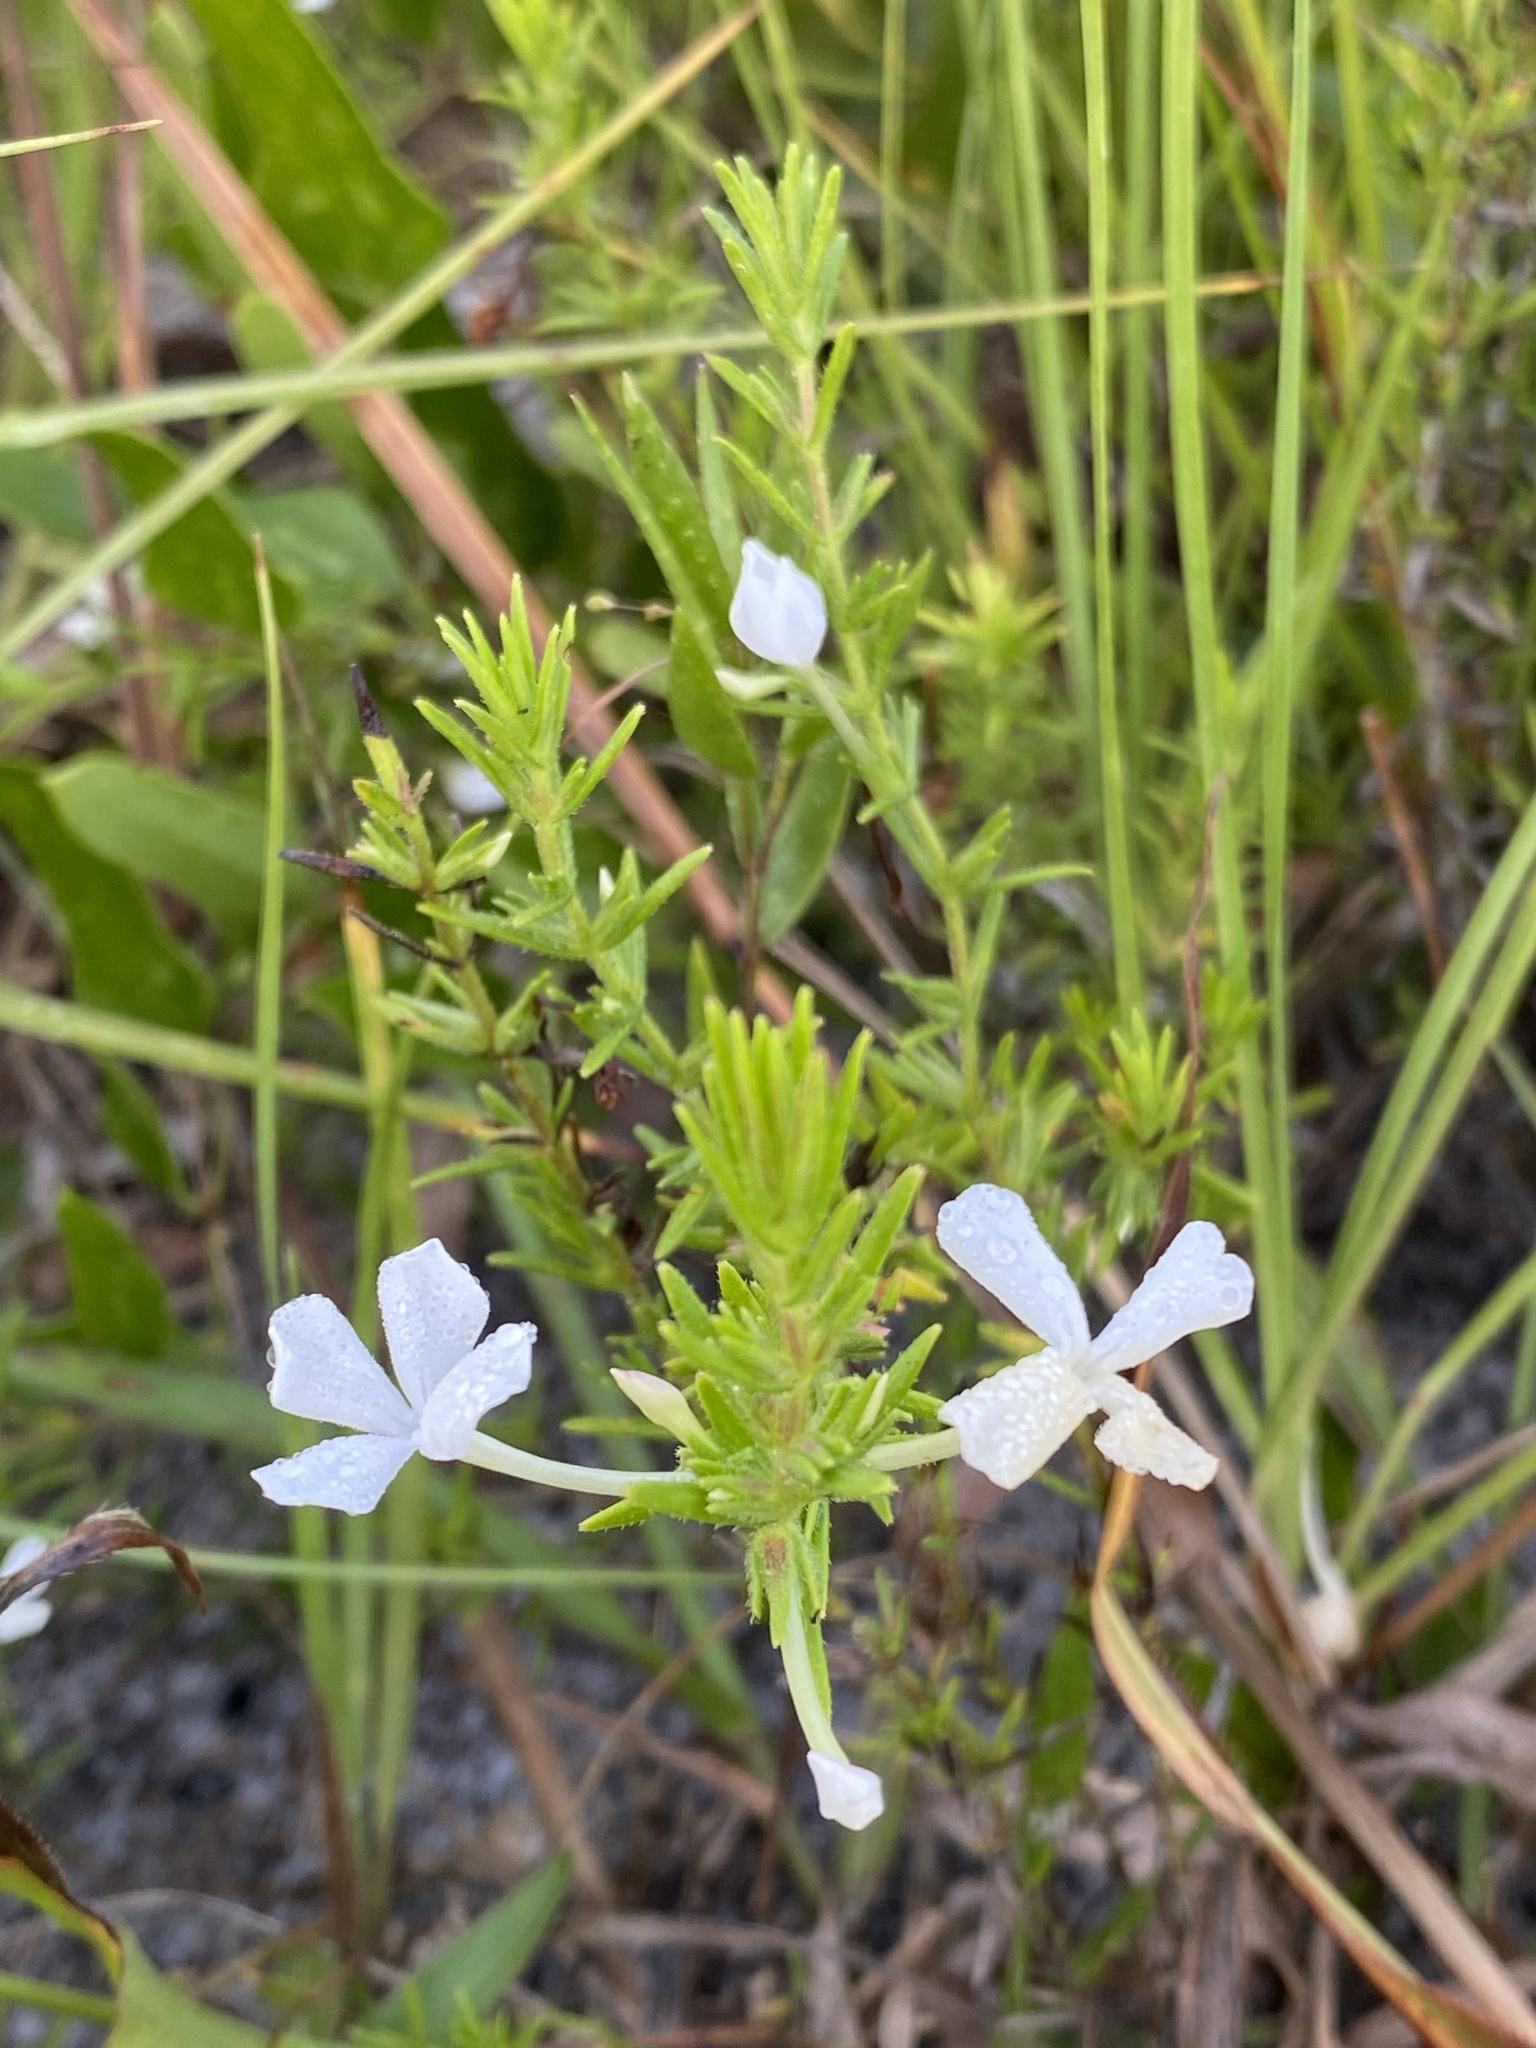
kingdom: Plantae
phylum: Tracheophyta
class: Magnoliopsida
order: Lamiales
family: Plantaginaceae
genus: Gratiola
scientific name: Gratiola hispida
